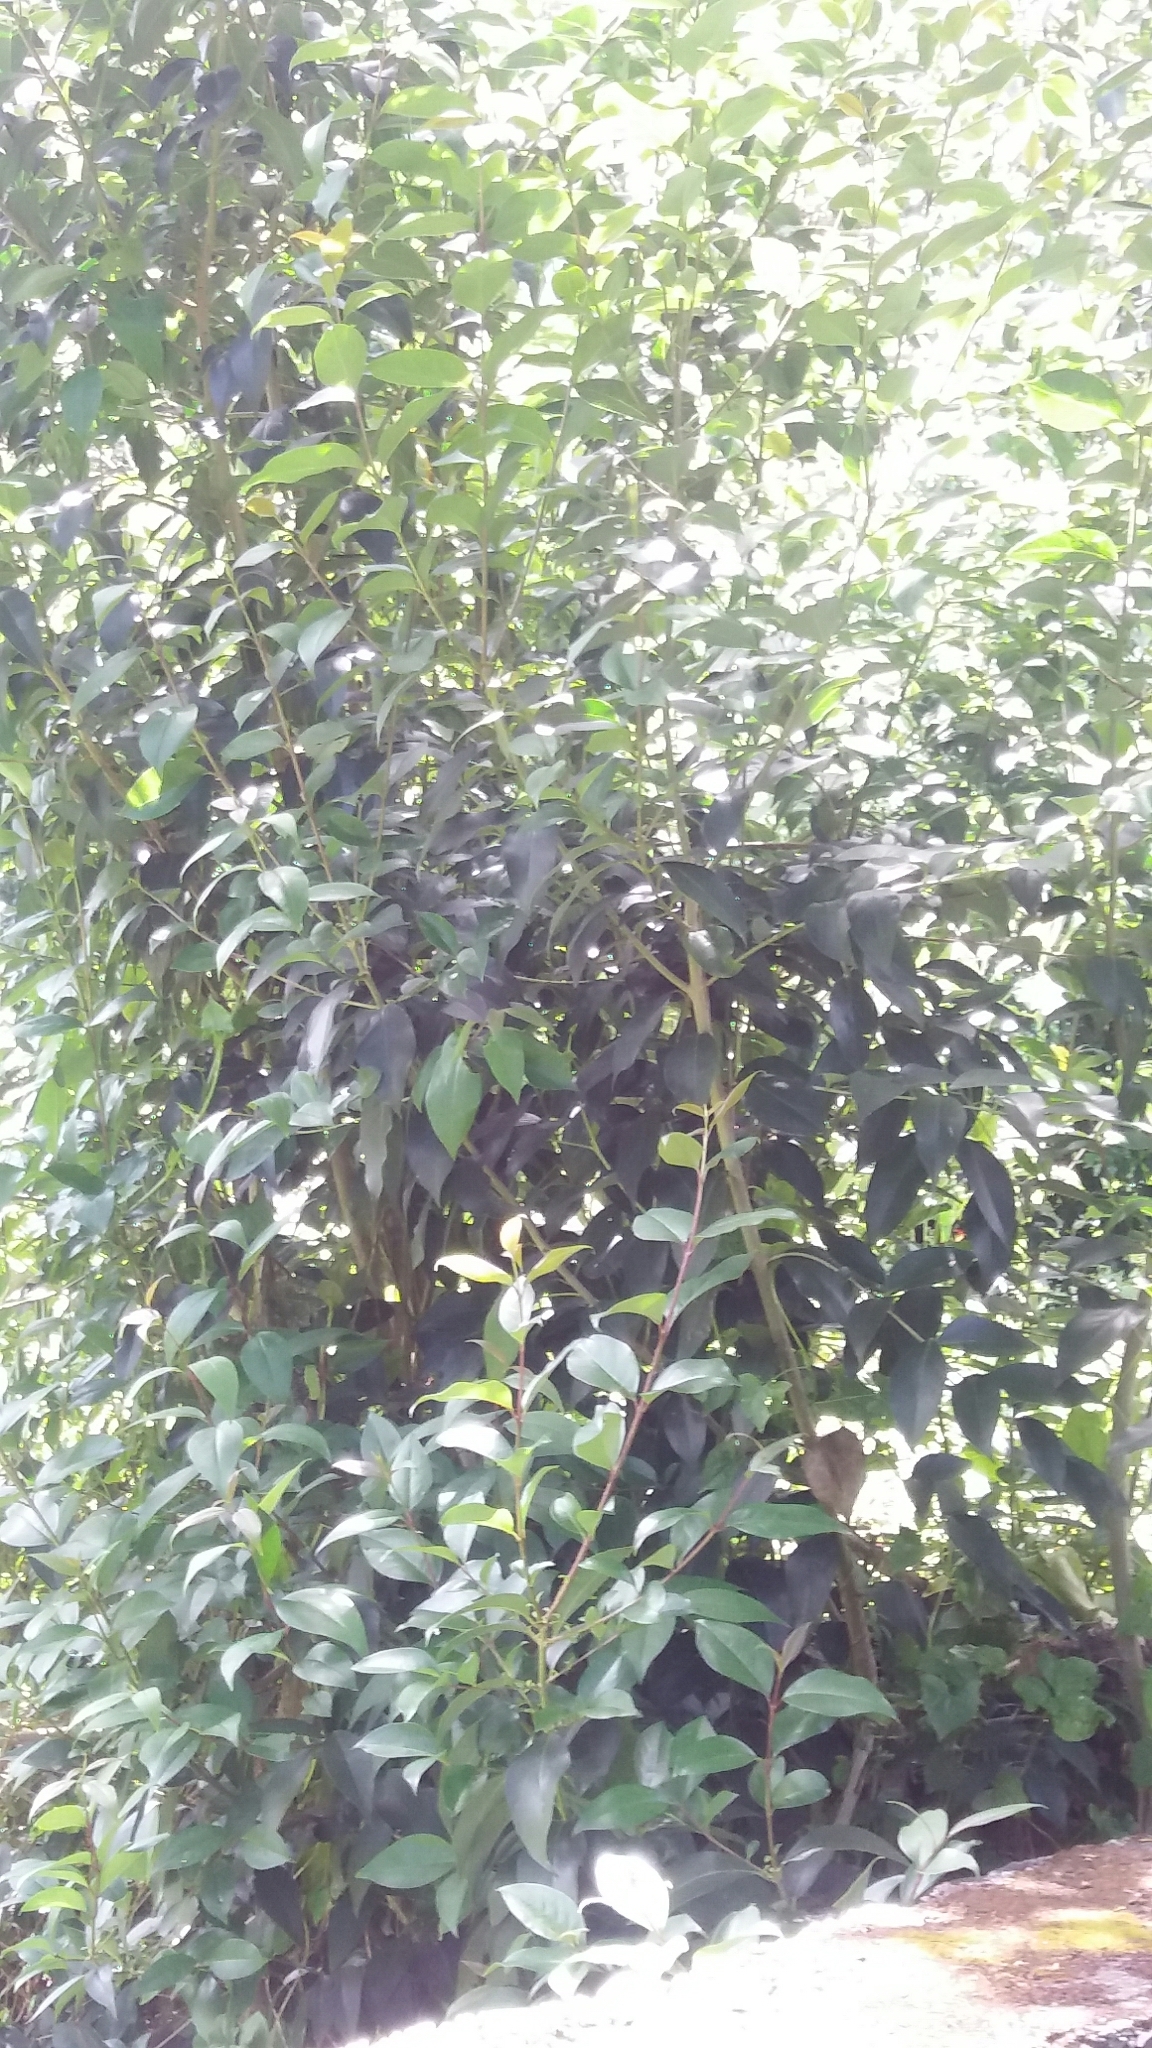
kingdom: Plantae
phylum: Tracheophyta
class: Magnoliopsida
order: Lamiales
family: Oleaceae
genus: Ligustrum
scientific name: Ligustrum lucidum
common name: Glossy privet
